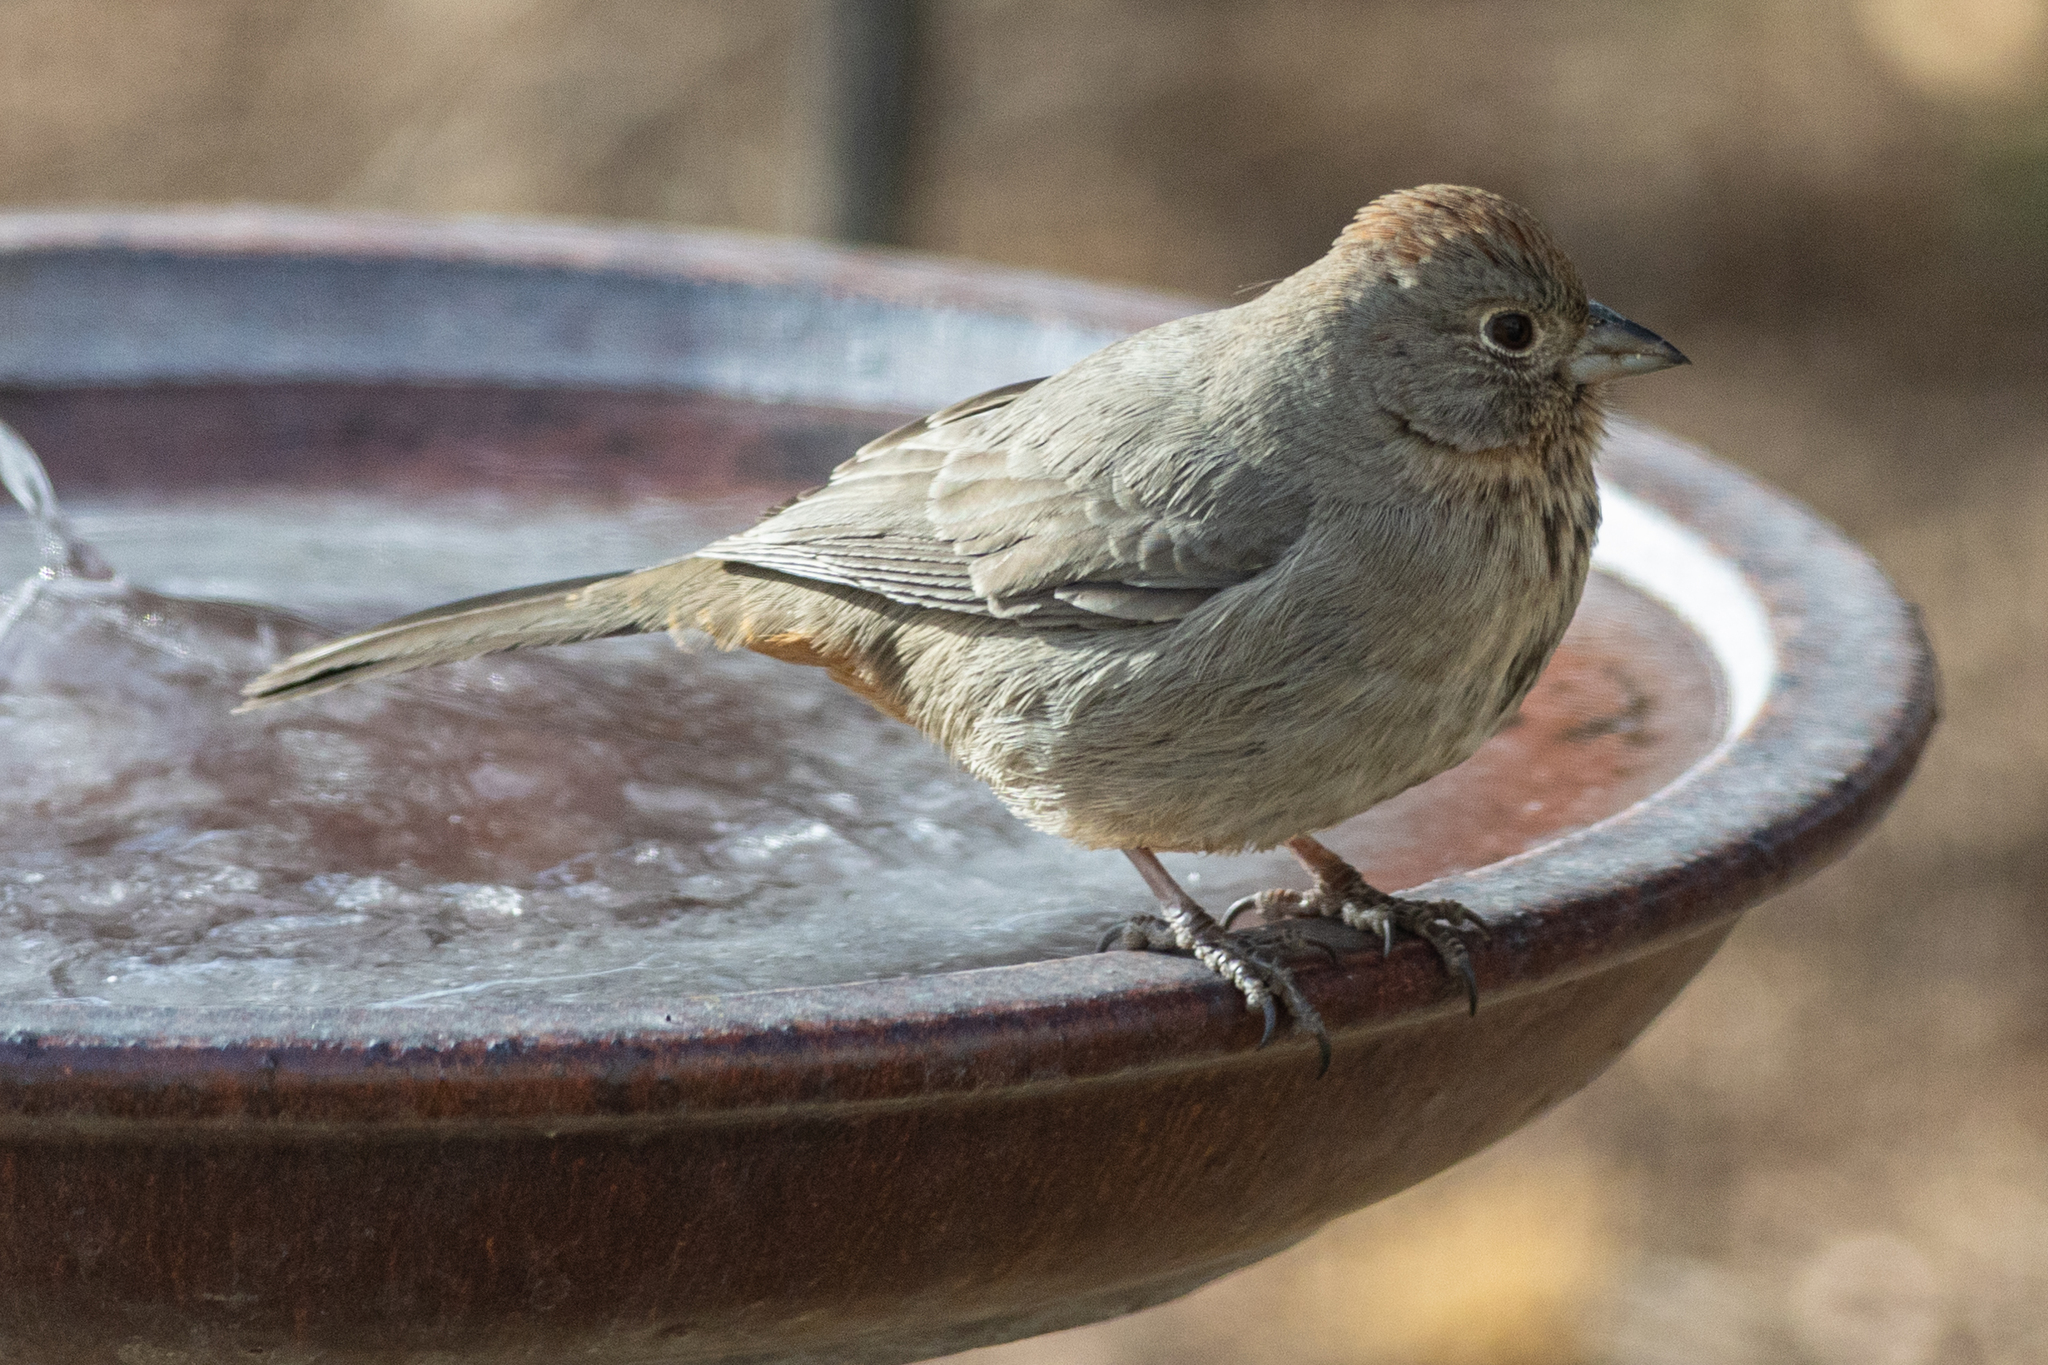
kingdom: Animalia
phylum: Chordata
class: Aves
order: Passeriformes
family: Passerellidae
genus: Melozone
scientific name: Melozone fusca
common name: Canyon towhee
